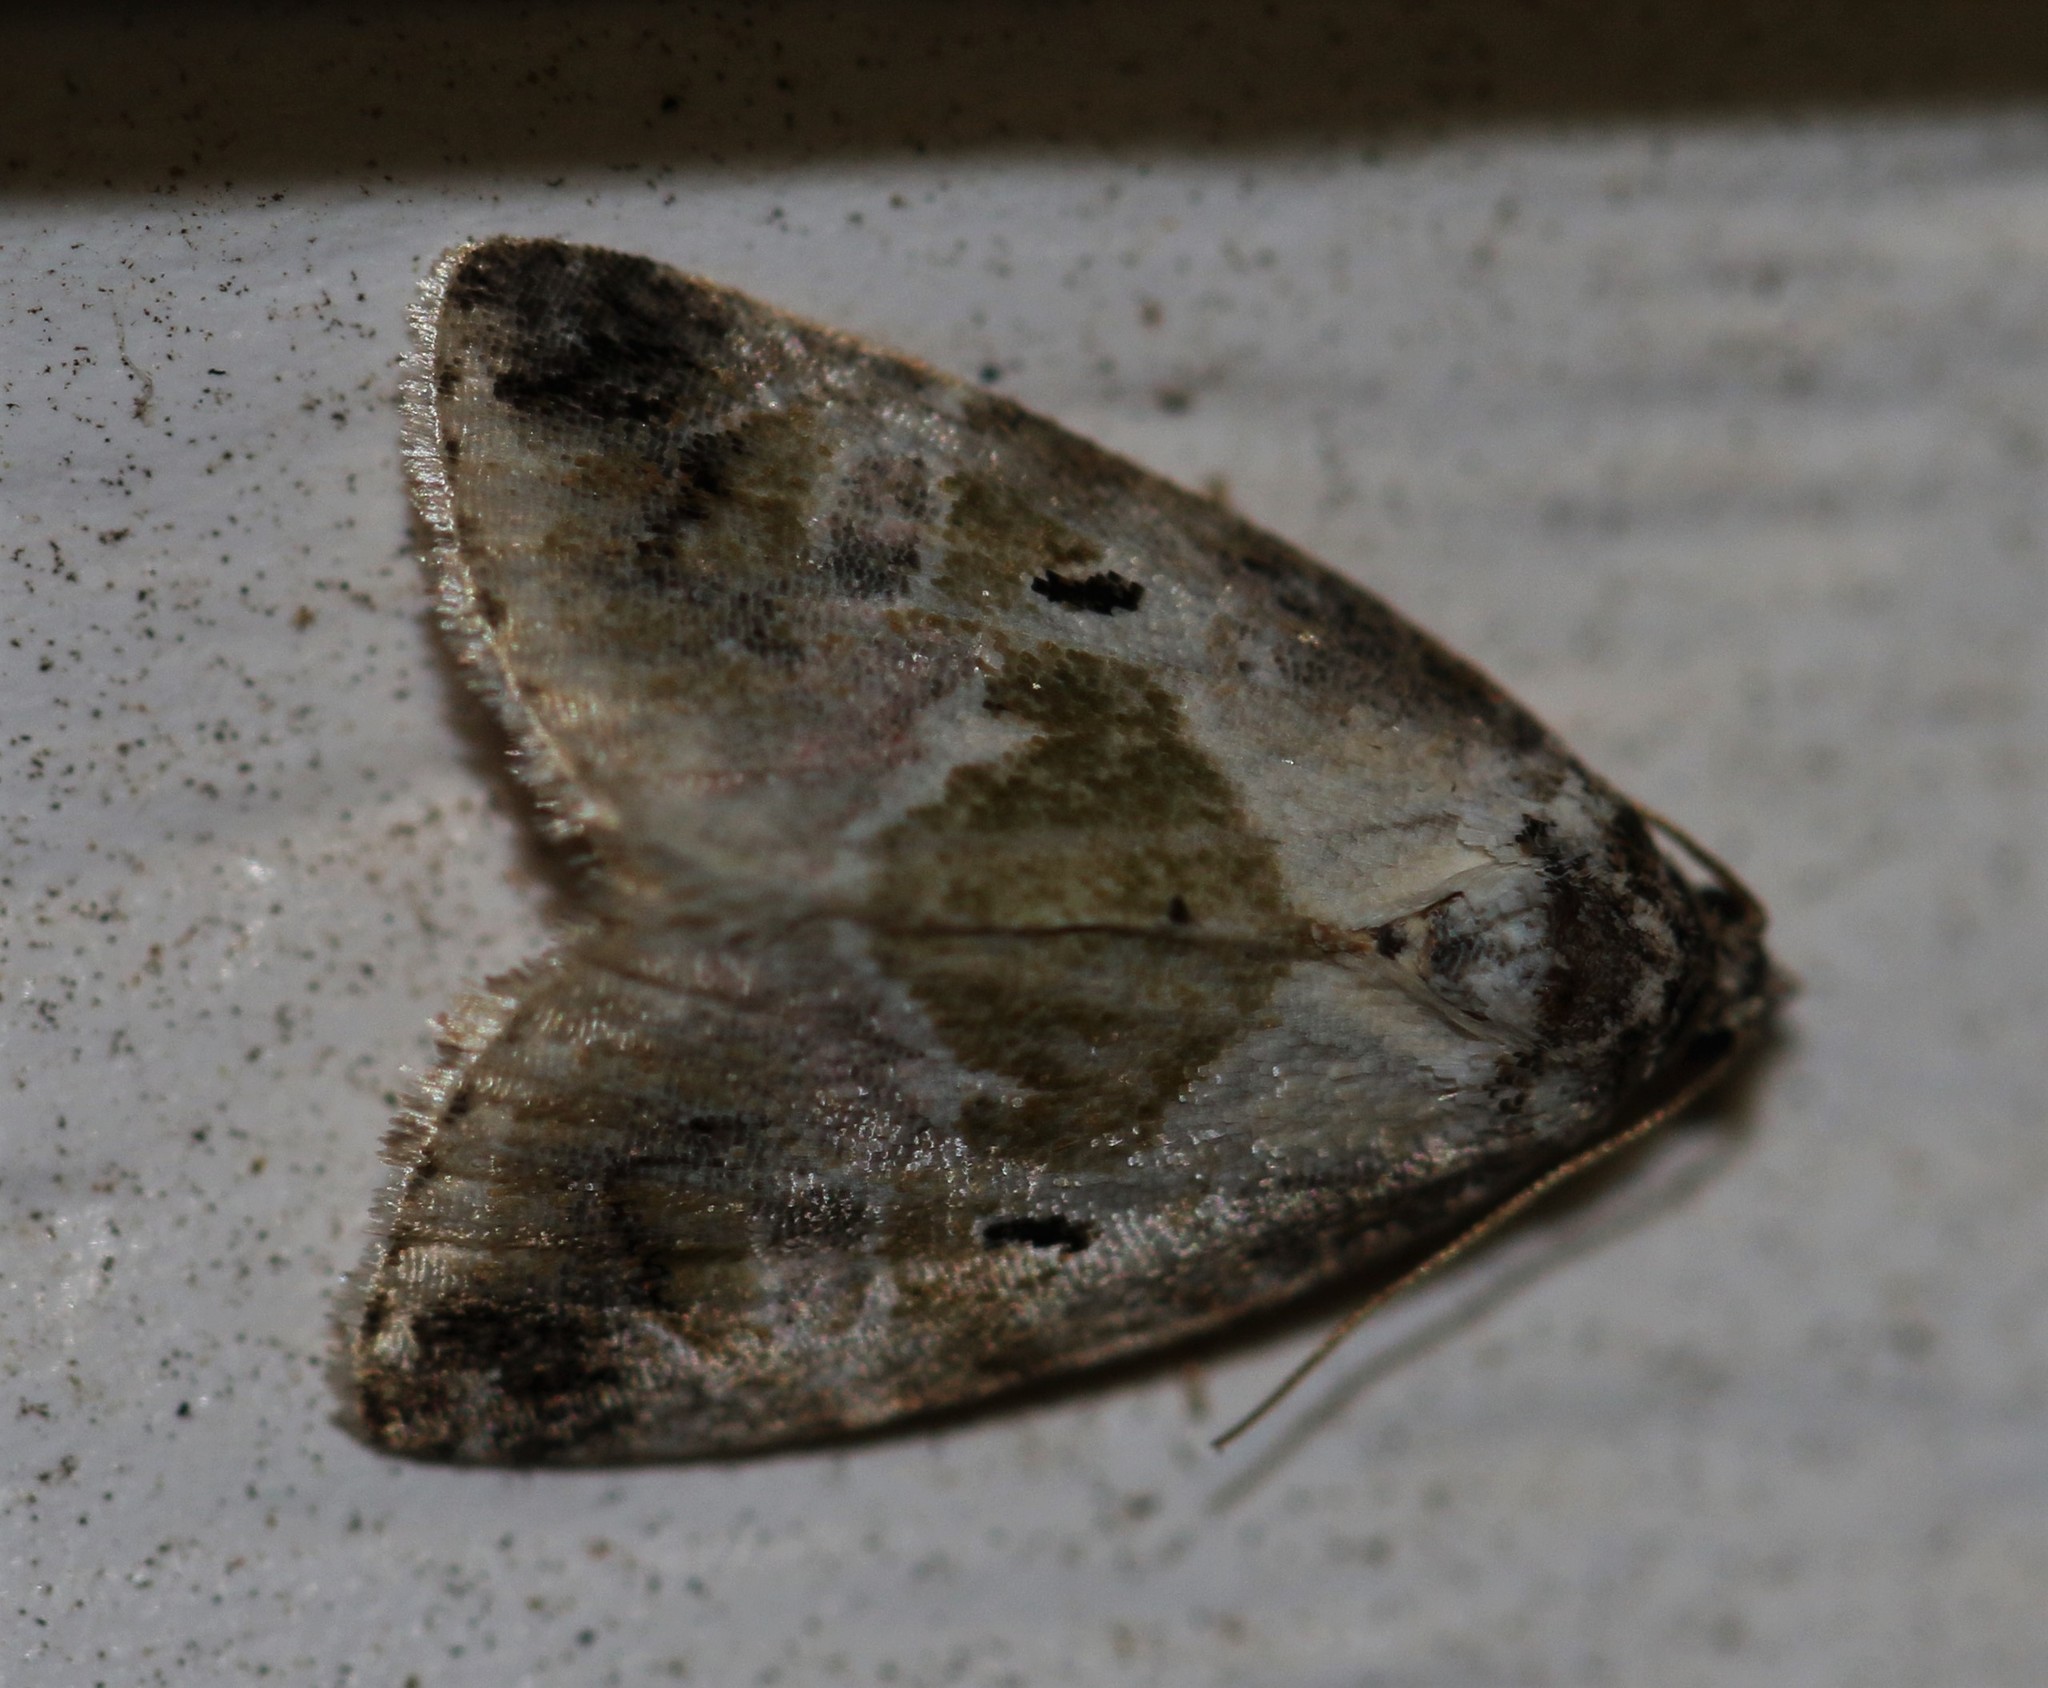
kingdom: Animalia
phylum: Arthropoda
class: Insecta
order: Lepidoptera
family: Noctuidae
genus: Maliattha
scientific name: Maliattha synochitis
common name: Black-dotted glyph
